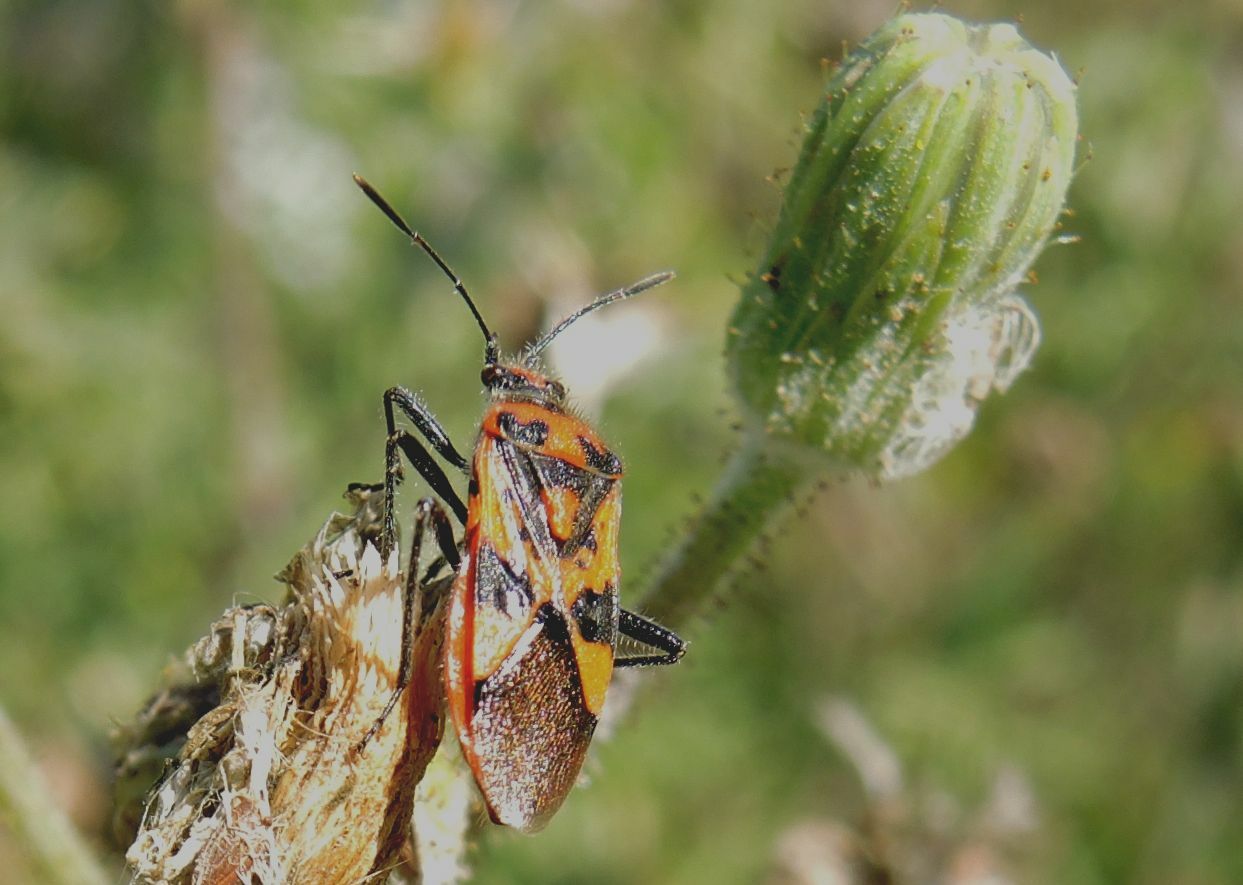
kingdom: Animalia
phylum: Arthropoda
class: Insecta
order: Hemiptera
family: Rhopalidae
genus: Corizus
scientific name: Corizus hyoscyami
